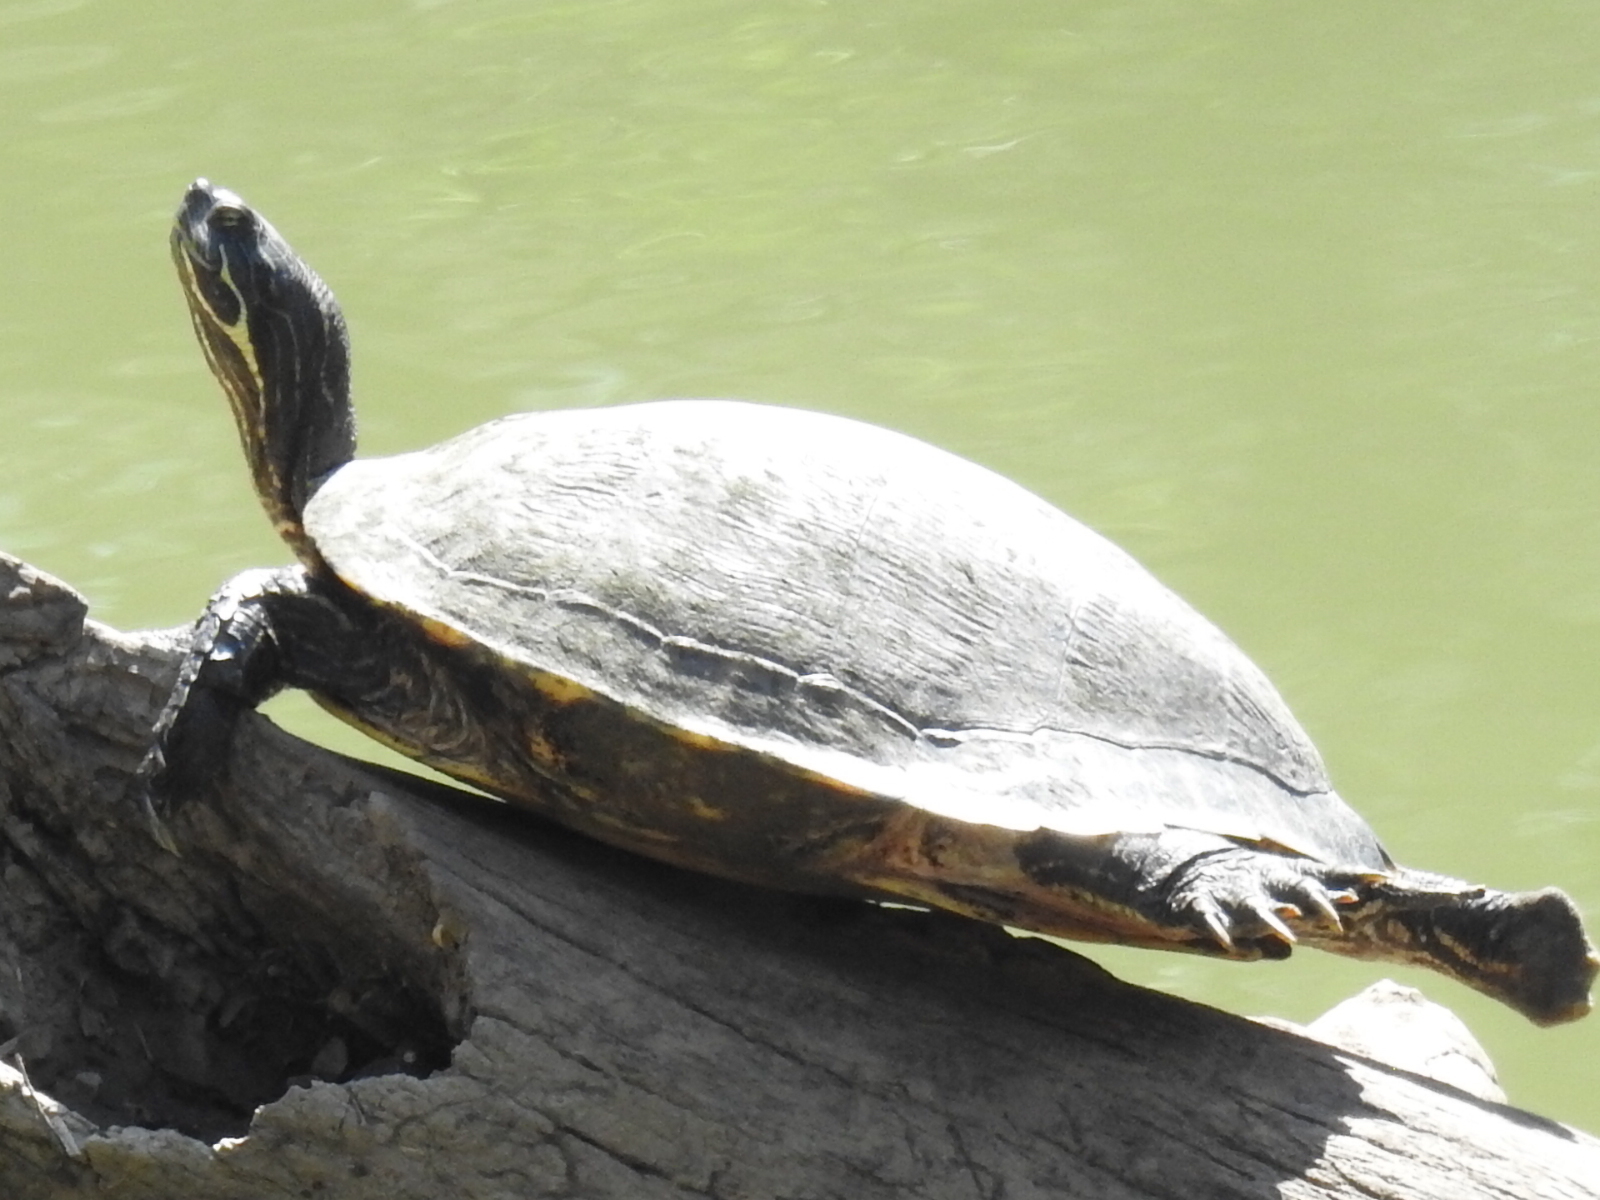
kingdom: Animalia
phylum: Chordata
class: Testudines
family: Emydidae
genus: Pseudemys
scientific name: Pseudemys concinna
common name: Eastern river cooter
